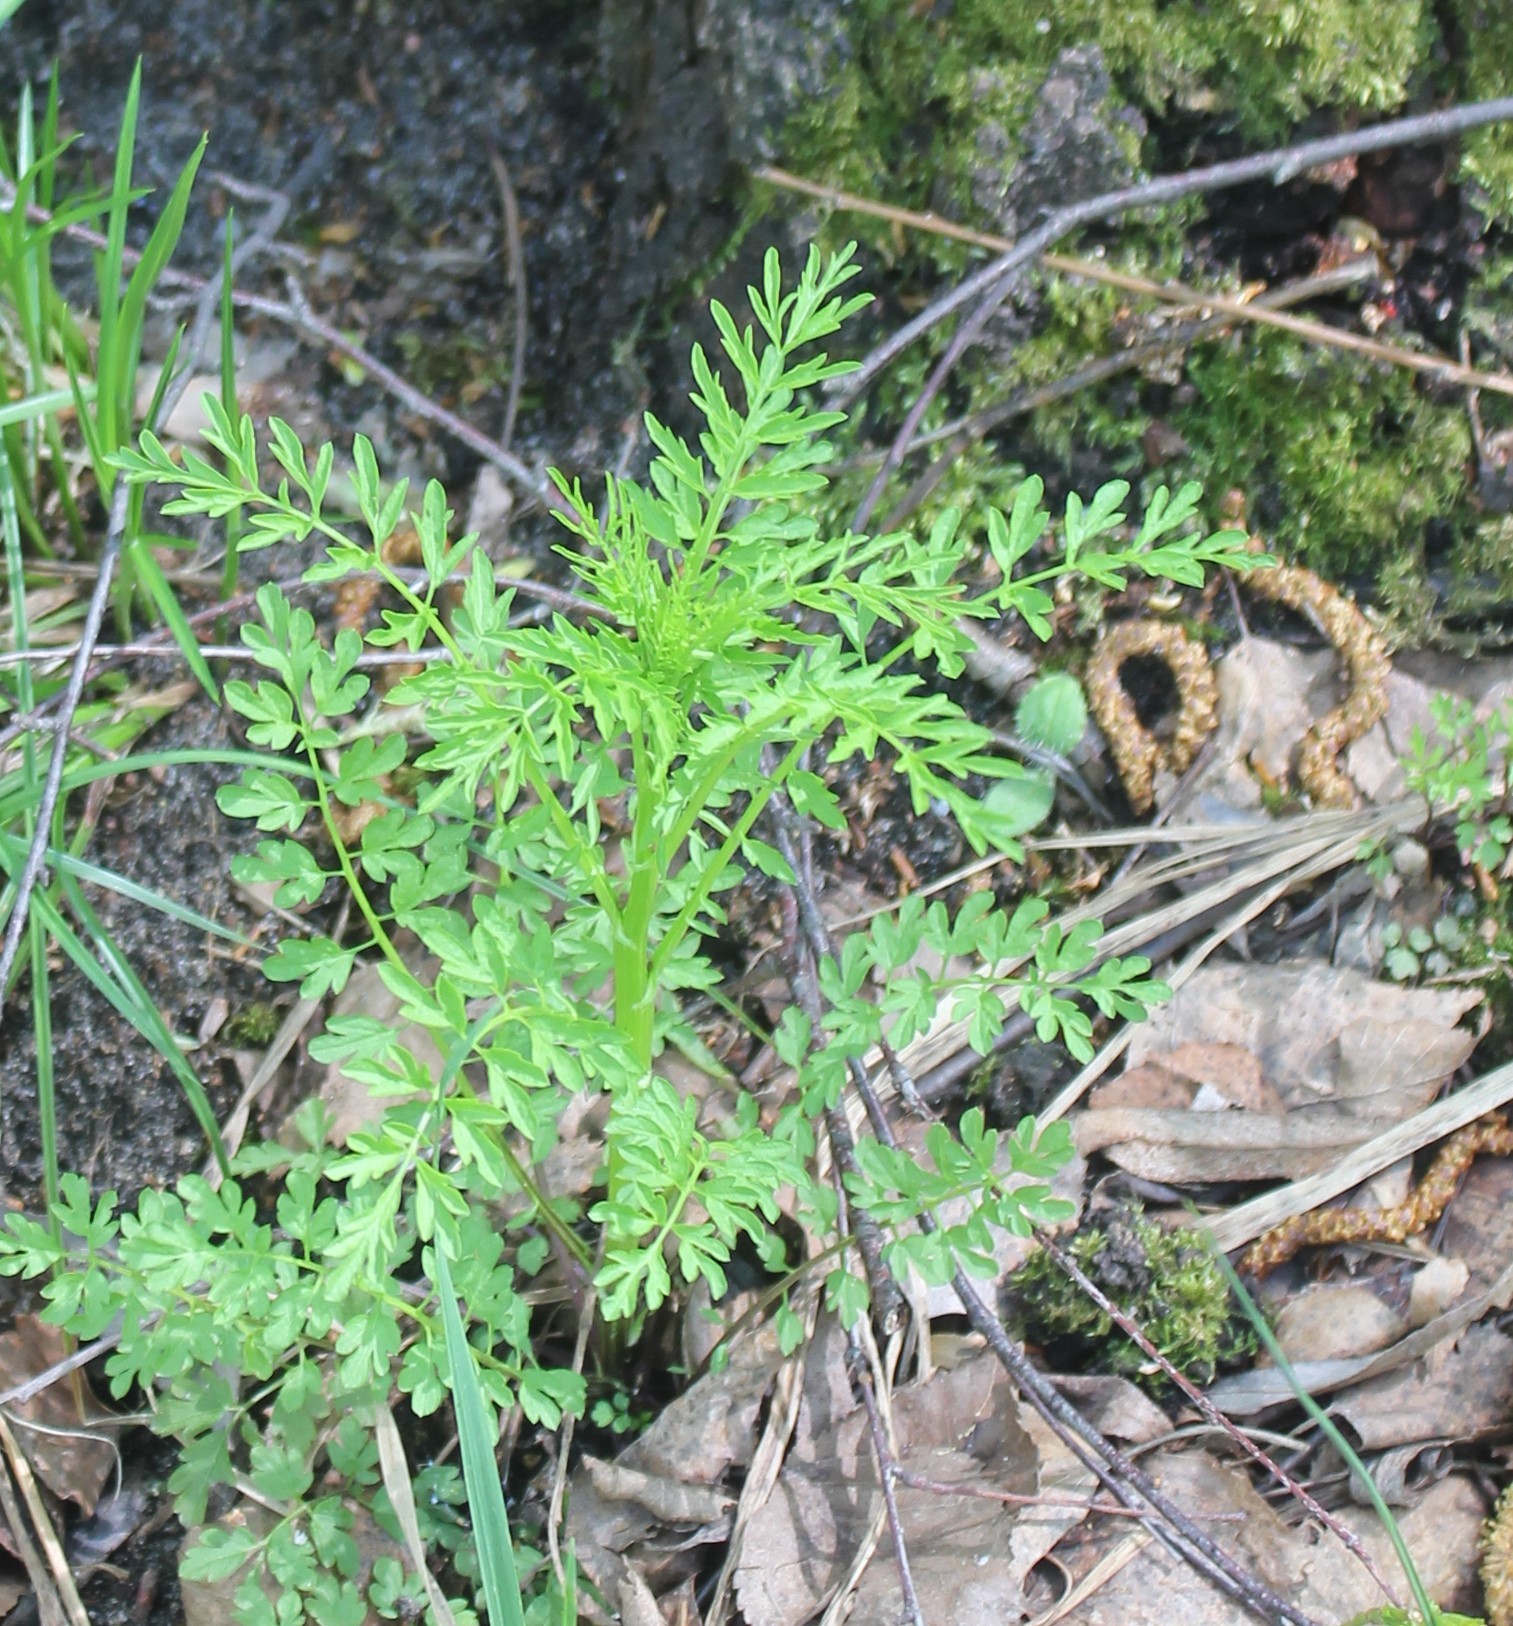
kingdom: Plantae
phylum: Tracheophyta
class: Magnoliopsida
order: Brassicales
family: Brassicaceae
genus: Cardamine
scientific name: Cardamine impatiens
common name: Narrow-leaved bitter-cress
